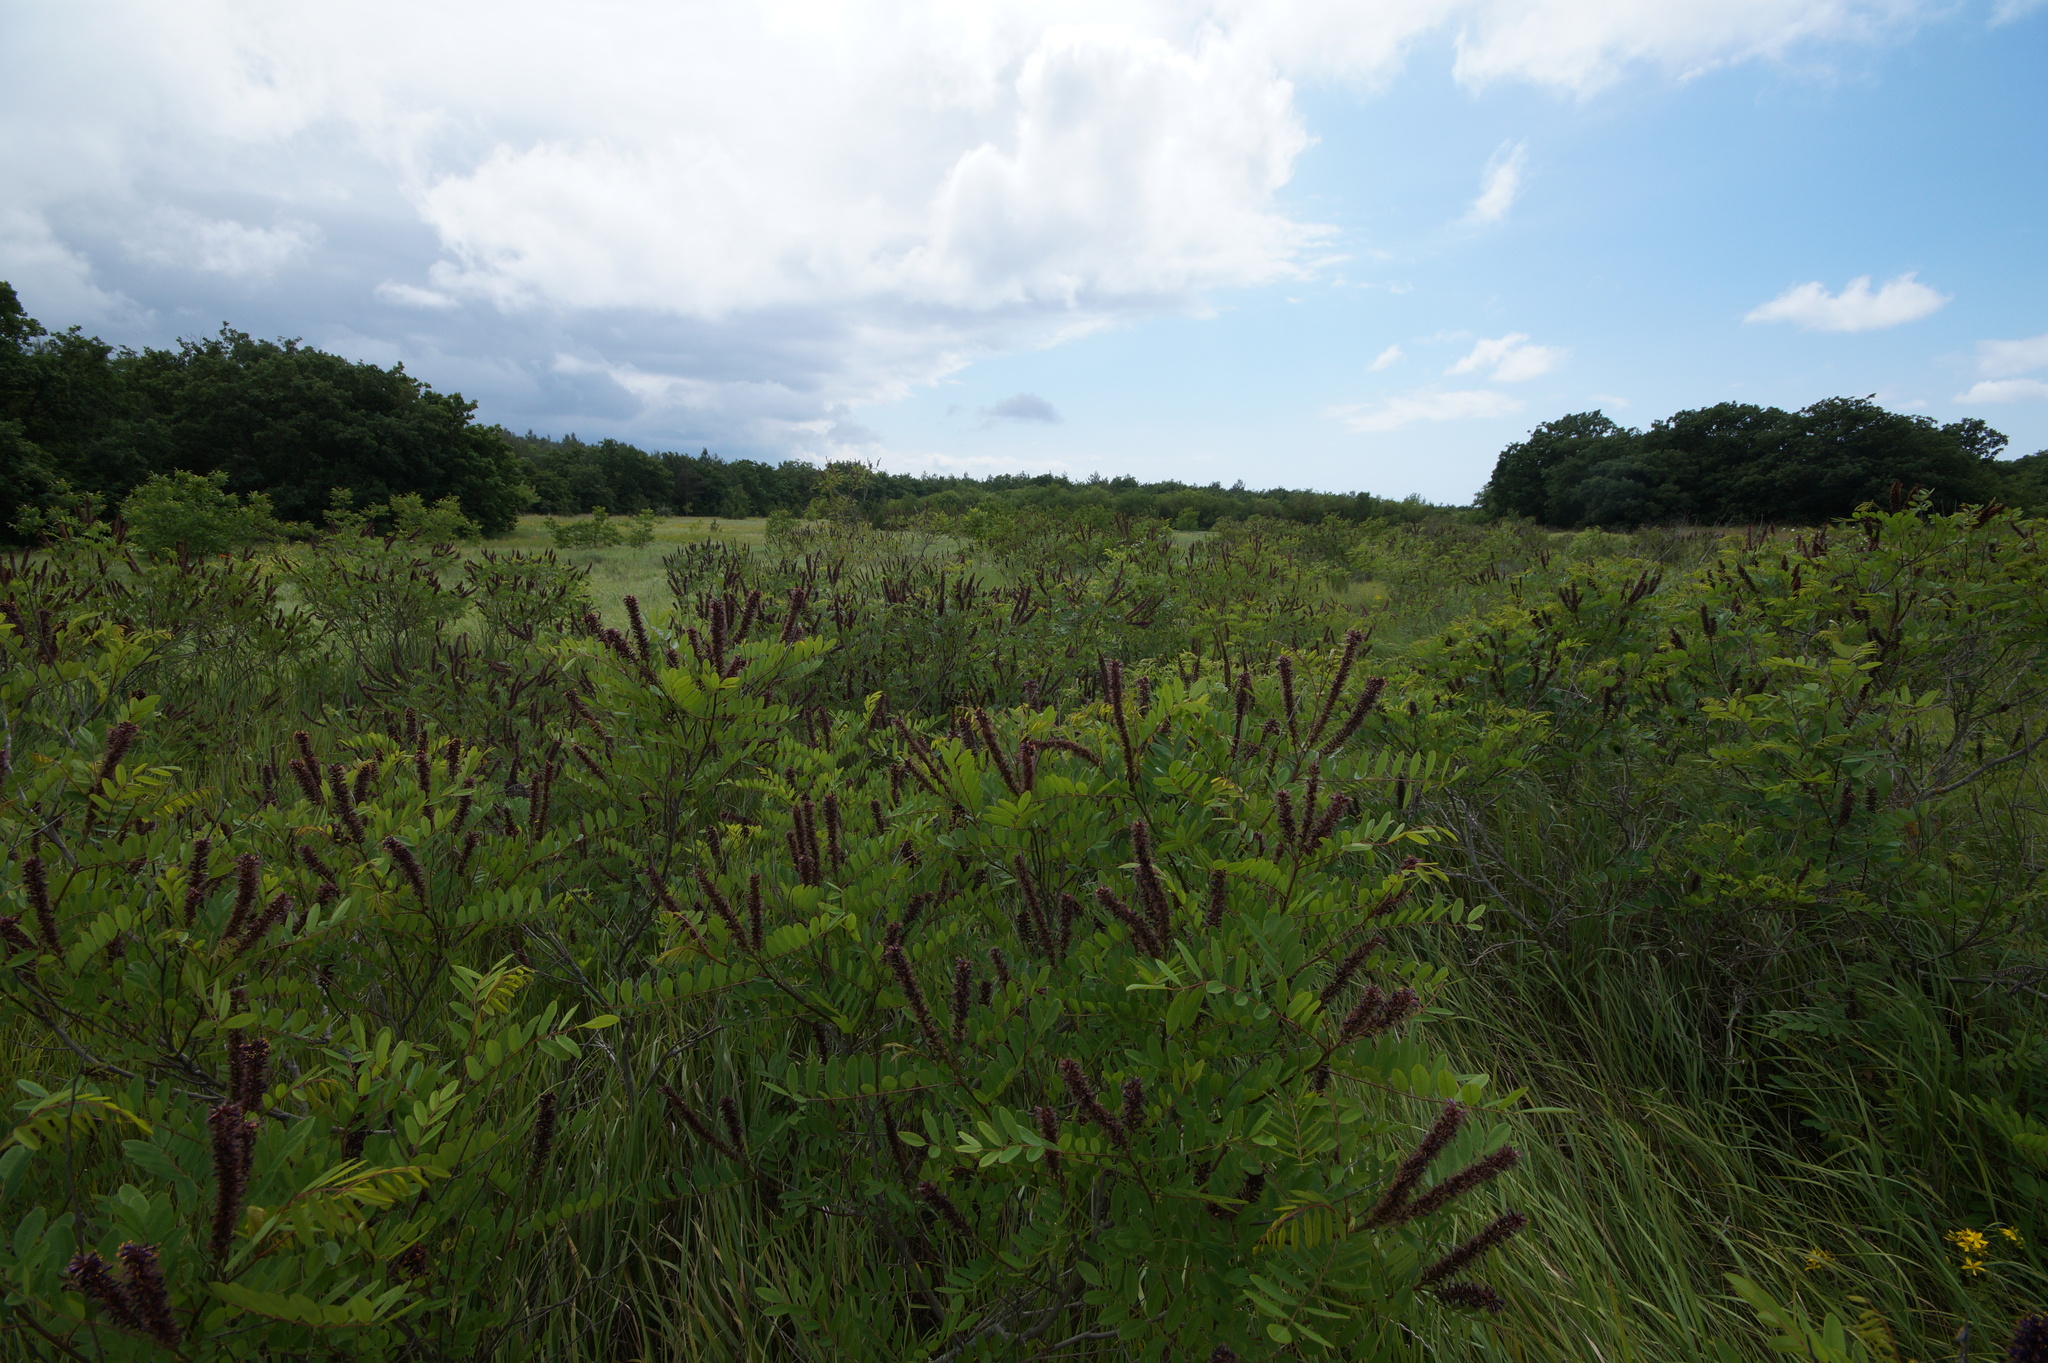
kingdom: Plantae
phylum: Tracheophyta
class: Magnoliopsida
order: Fabales
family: Fabaceae
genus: Amorpha
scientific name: Amorpha fruticosa
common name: False indigo
